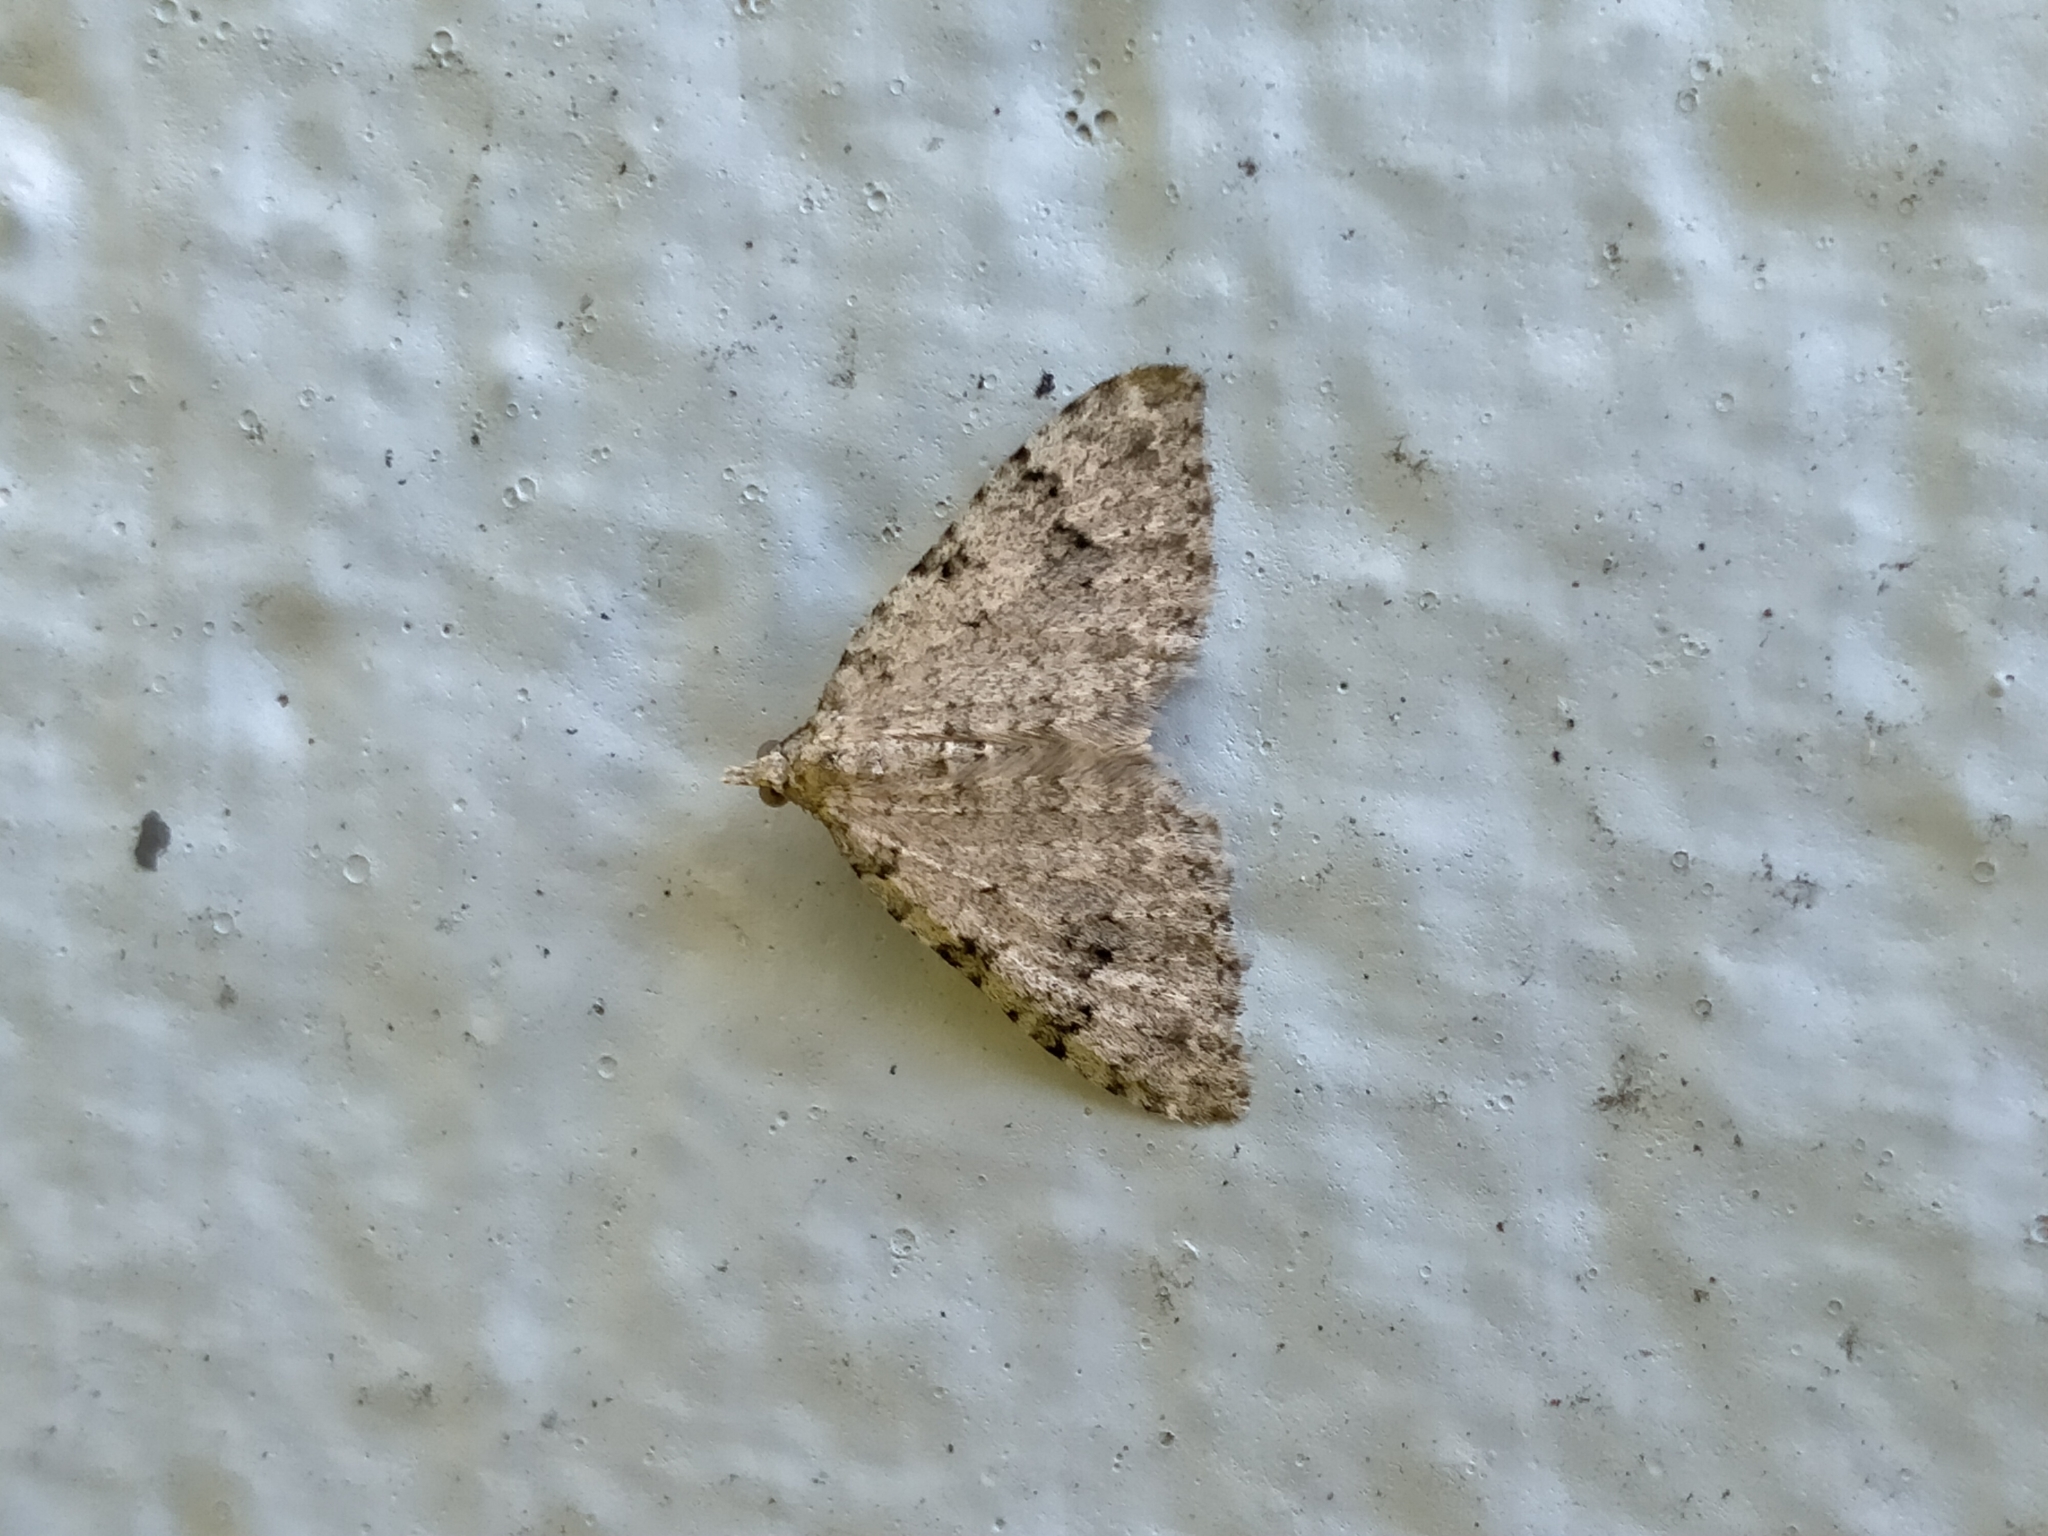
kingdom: Animalia
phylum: Arthropoda
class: Insecta
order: Lepidoptera
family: Geometridae
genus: Helastia
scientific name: Helastia cinerearia
